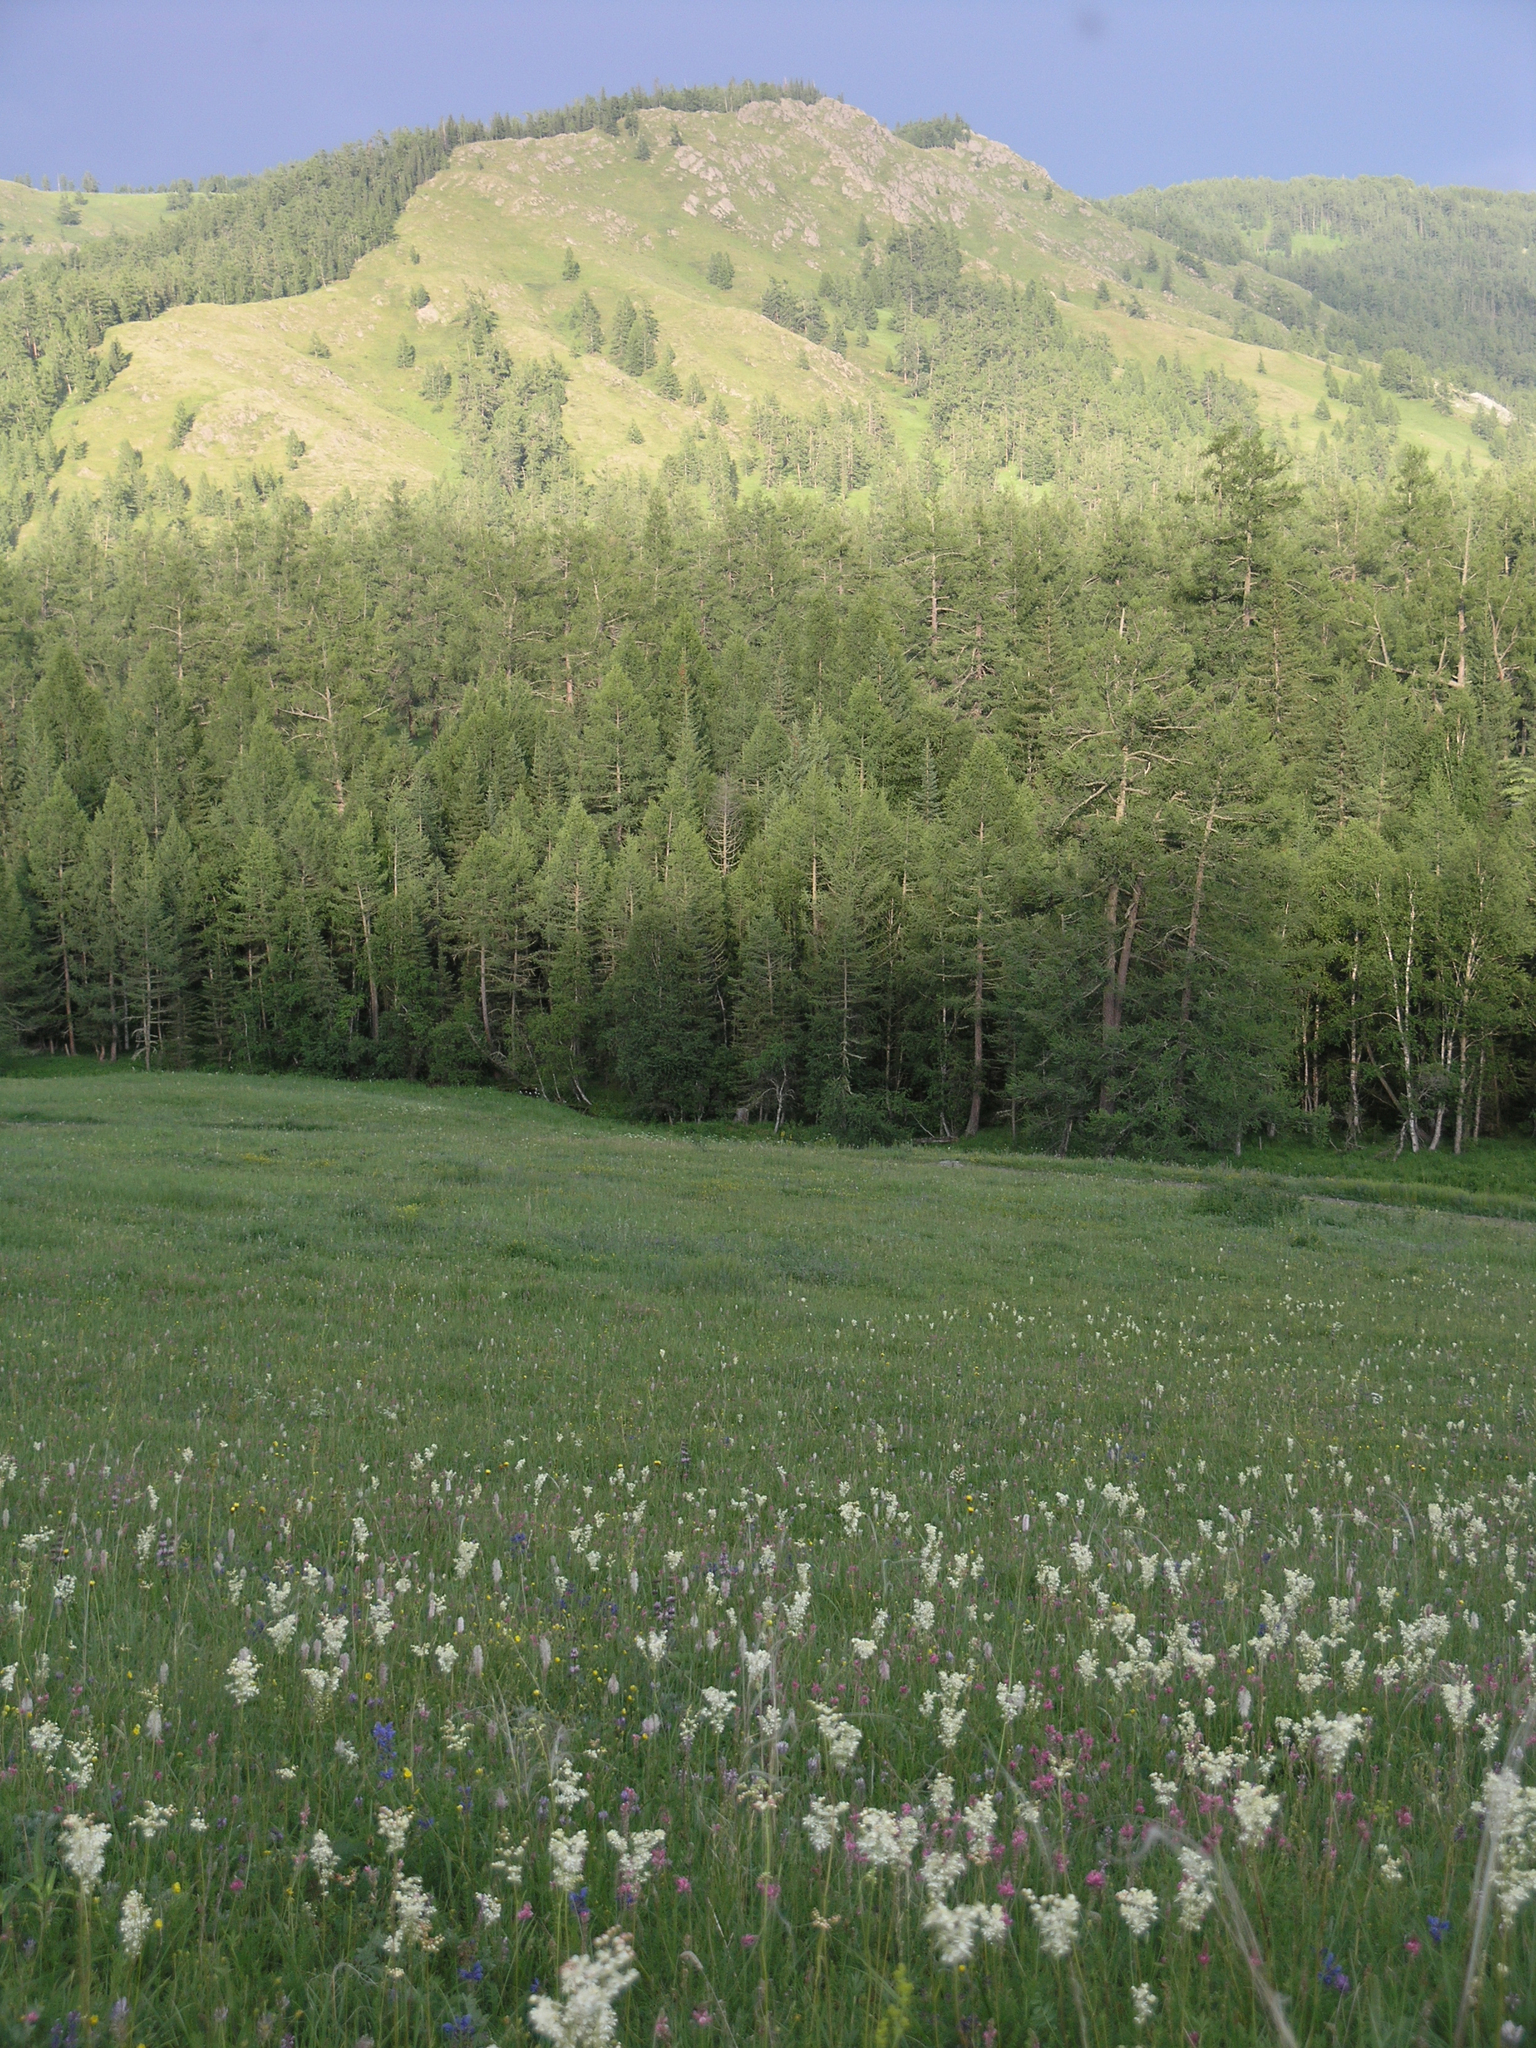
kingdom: Plantae
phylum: Tracheophyta
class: Magnoliopsida
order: Rosales
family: Rosaceae
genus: Filipendula
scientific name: Filipendula vulgaris
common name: Dropwort
